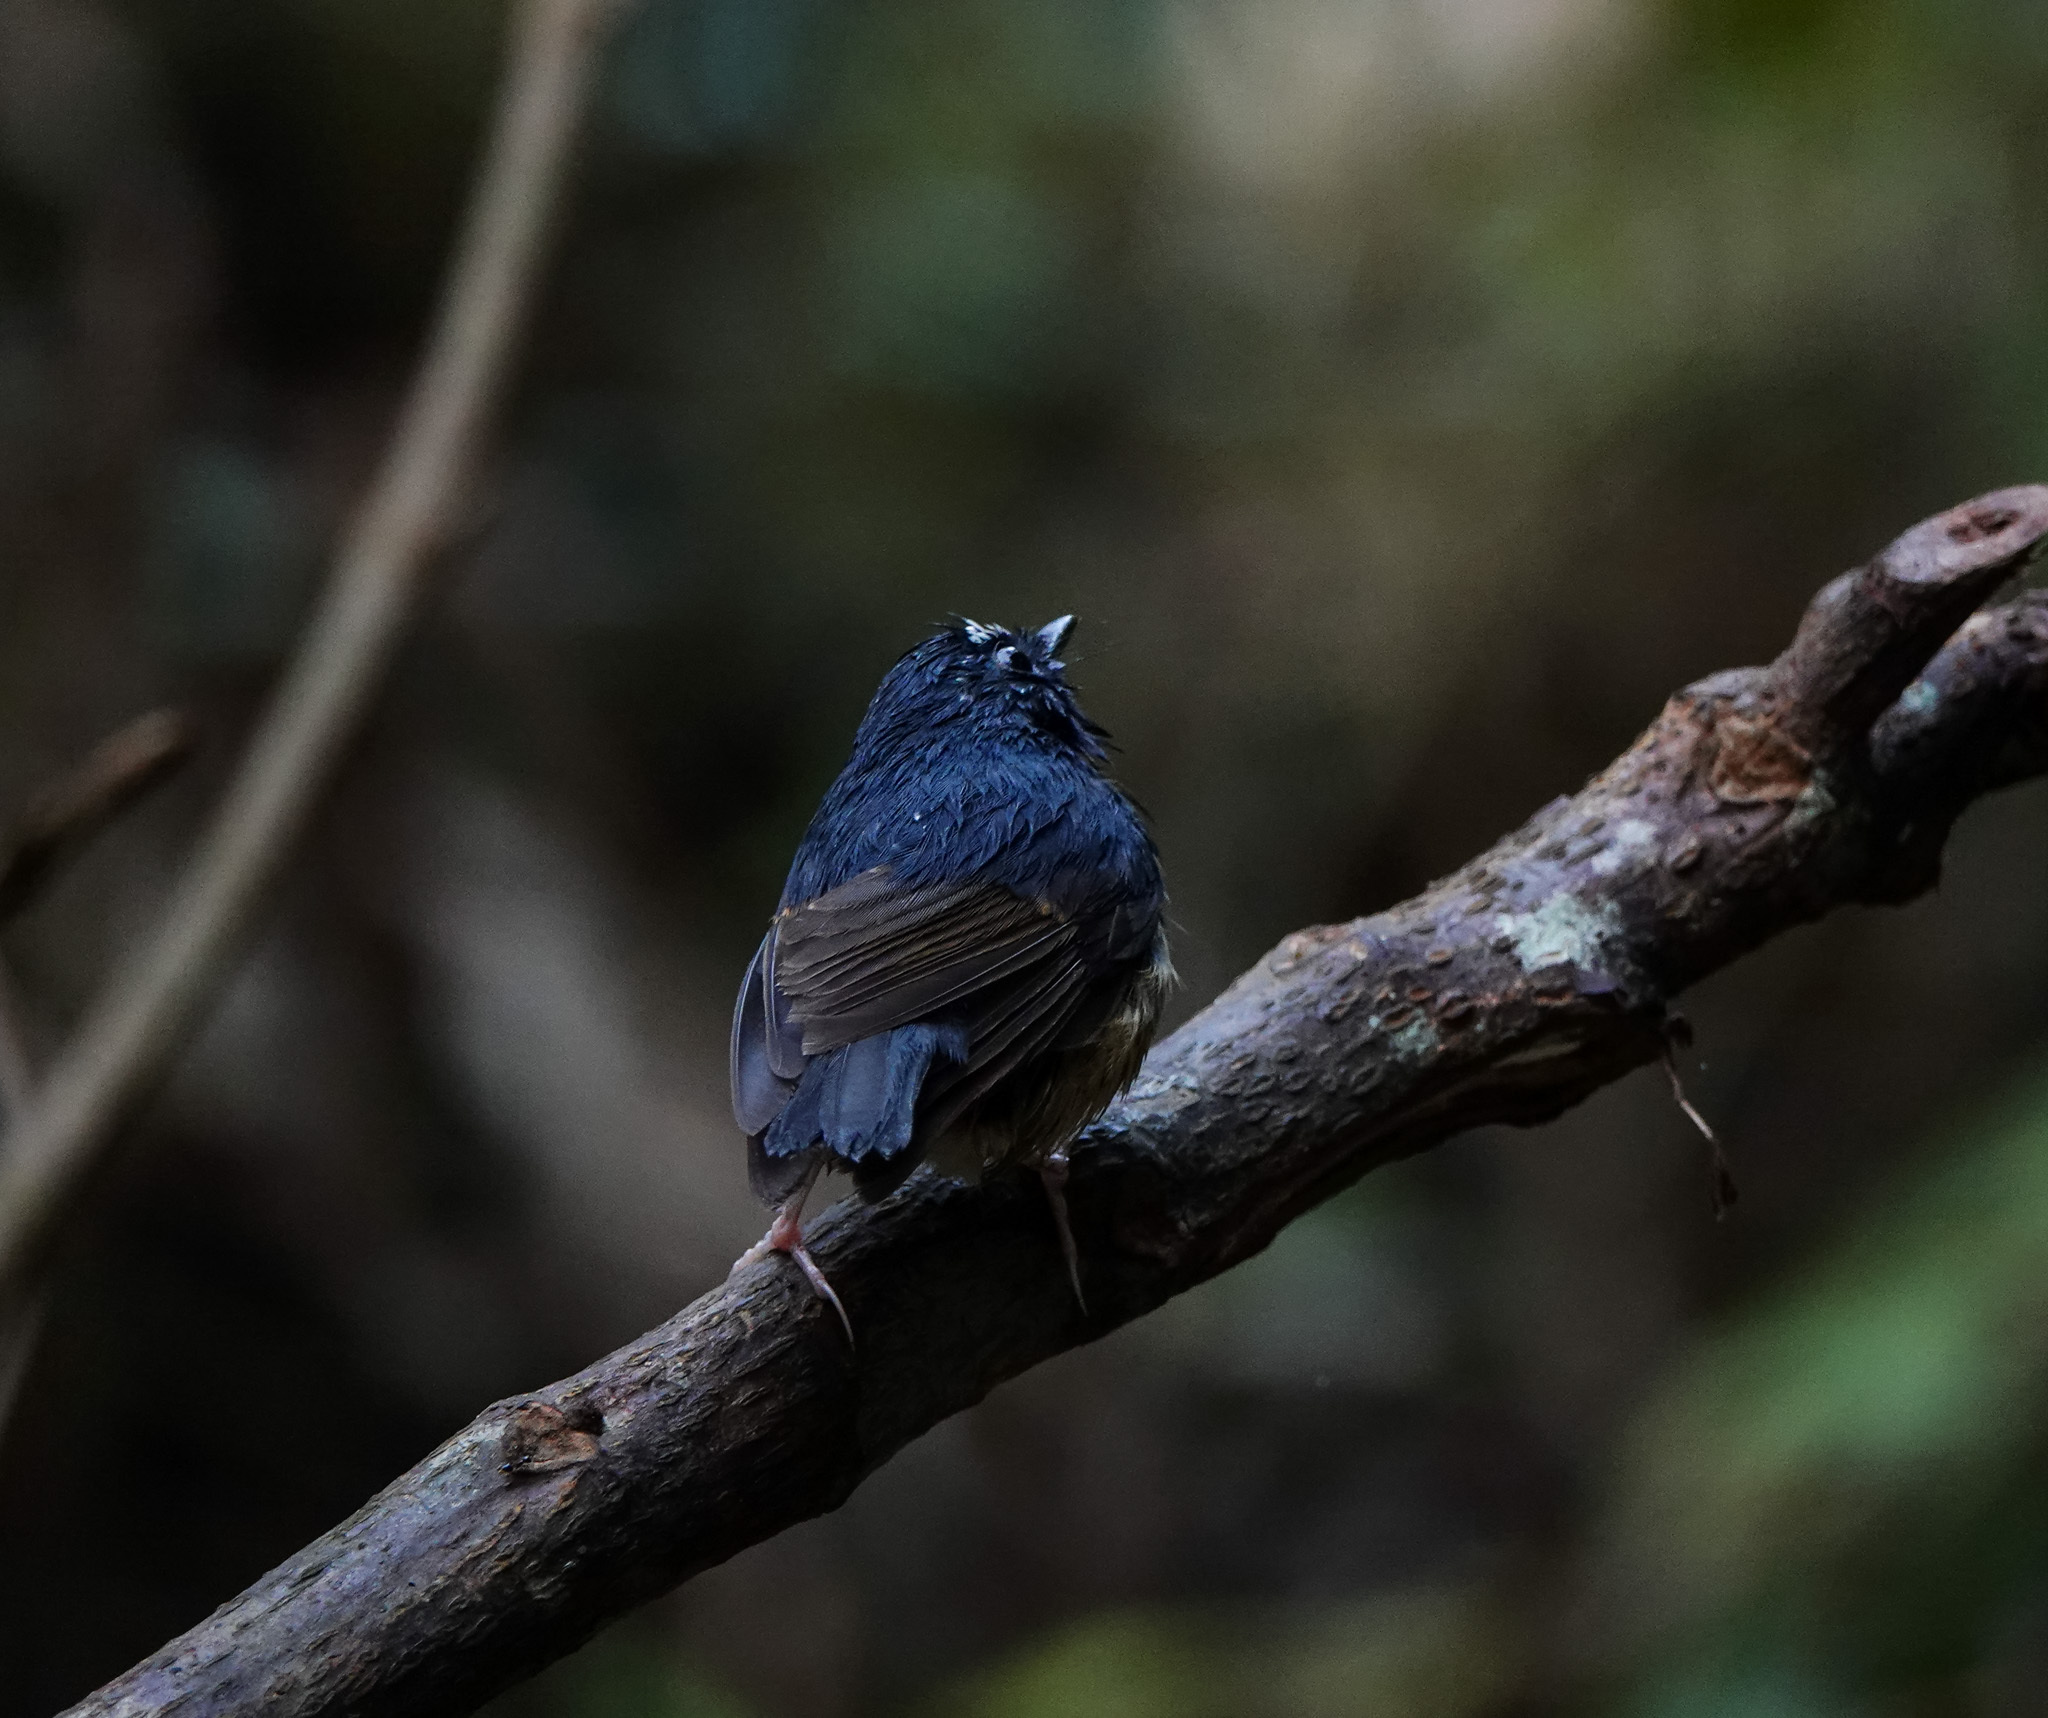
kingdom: Animalia
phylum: Chordata
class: Aves
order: Passeriformes
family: Muscicapidae
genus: Ficedula
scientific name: Ficedula hyperythra
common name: Snowy-browed flycatcher
